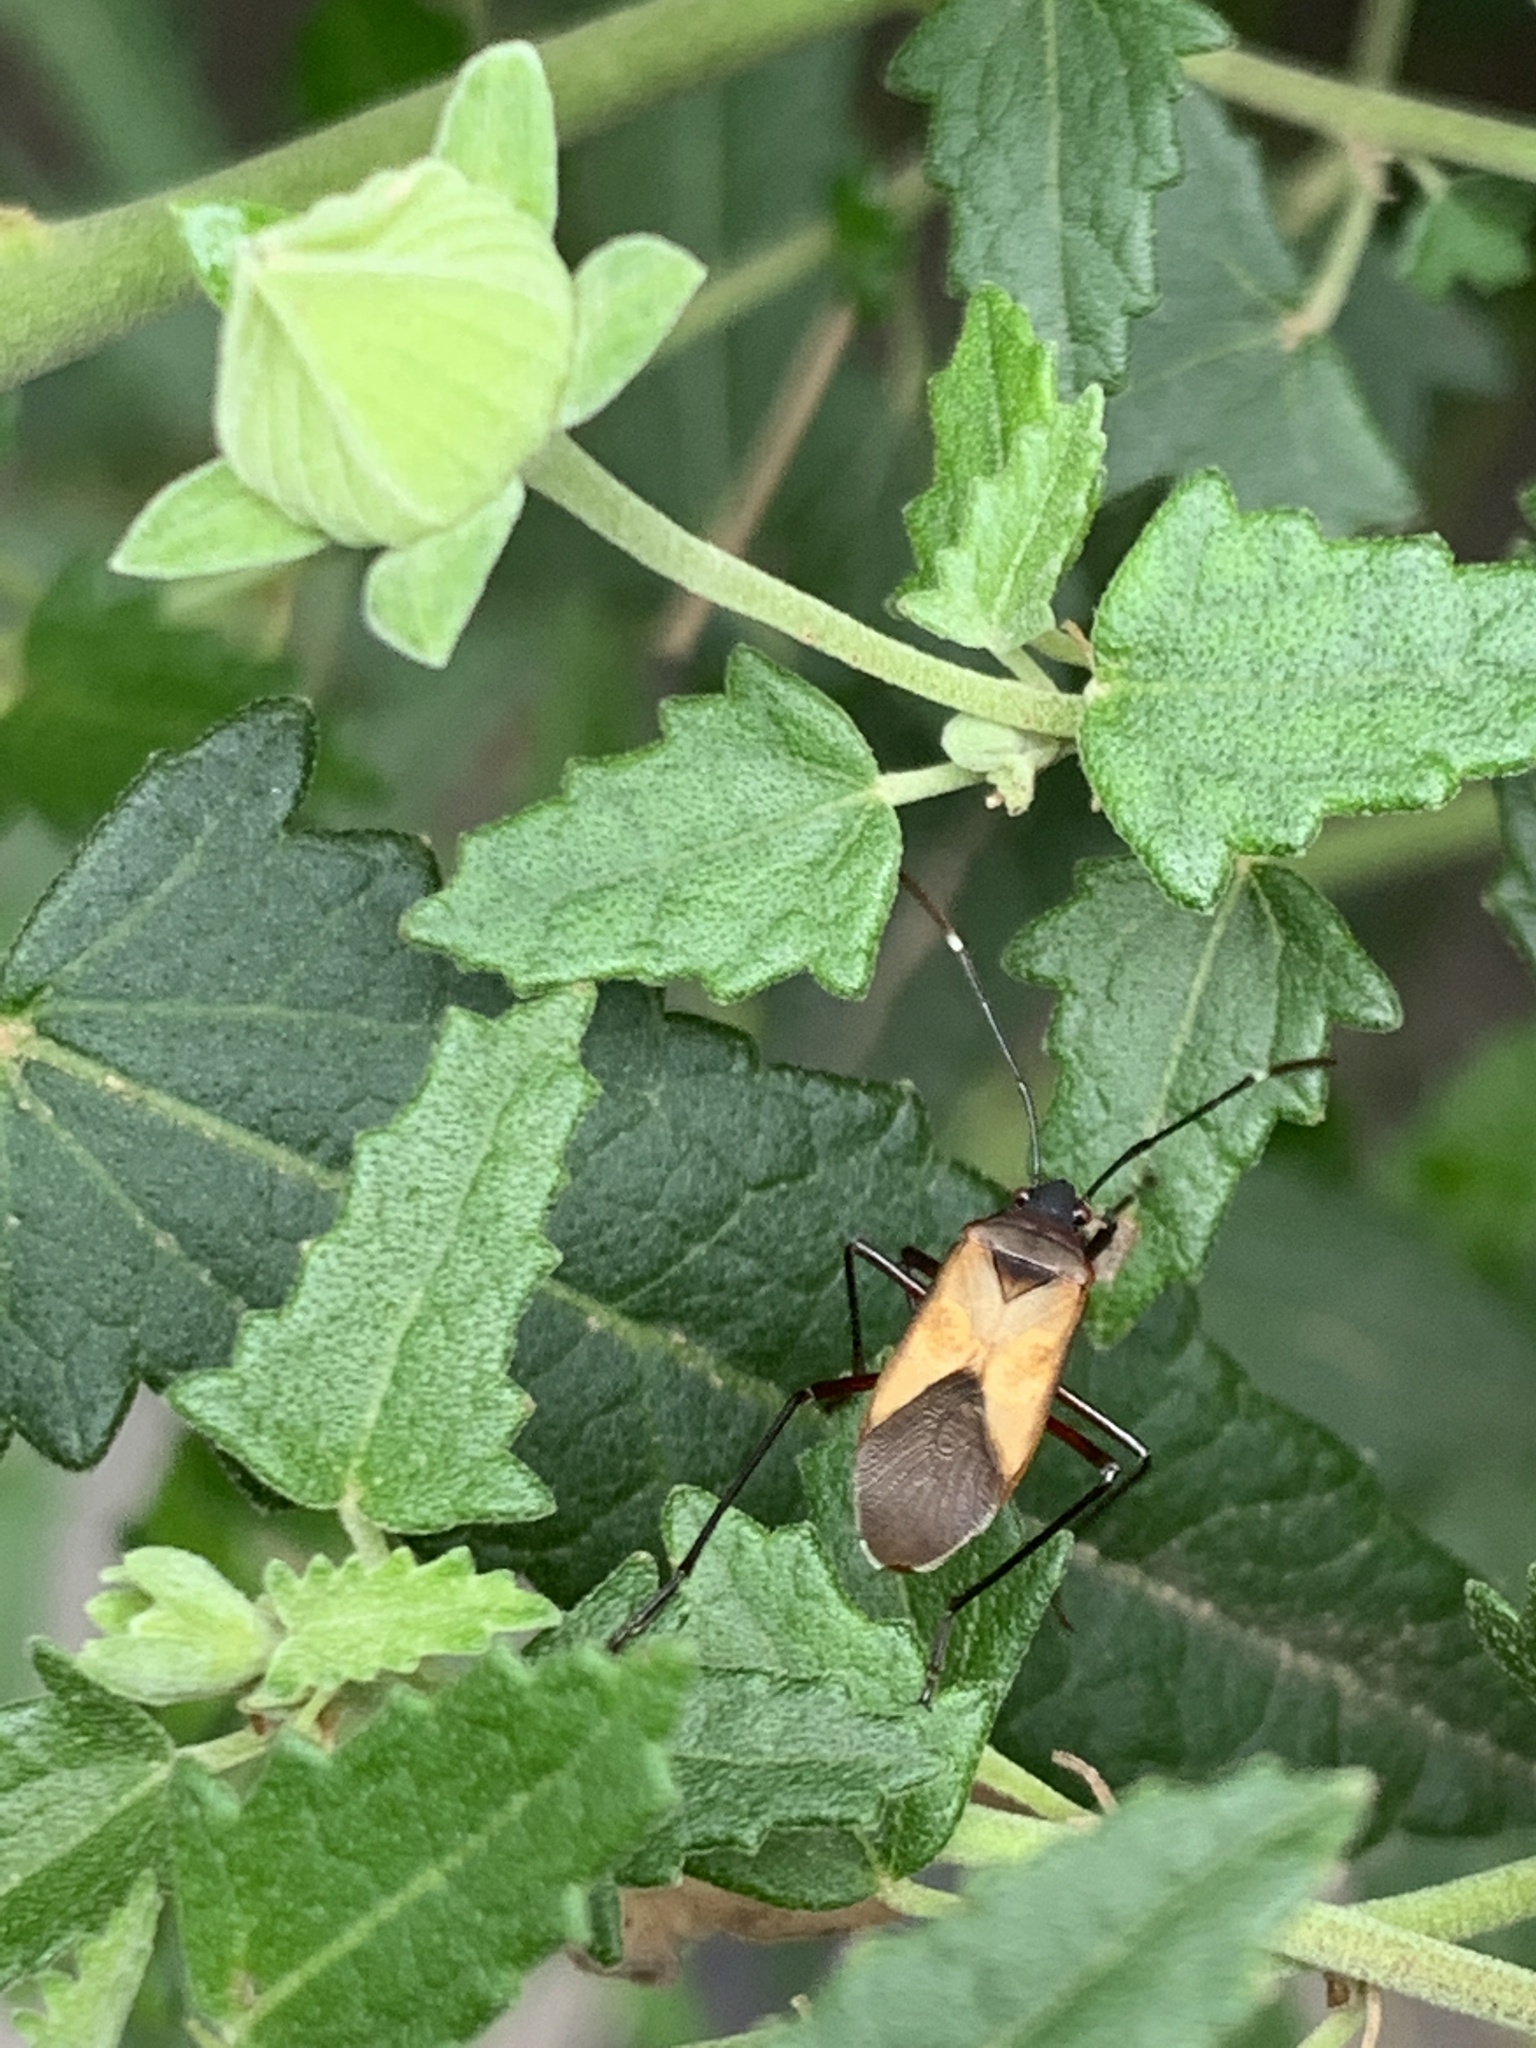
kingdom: Animalia
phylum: Arthropoda
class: Insecta
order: Hemiptera
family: Pyrrhocoridae
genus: Dysdercus
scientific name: Dysdercus
